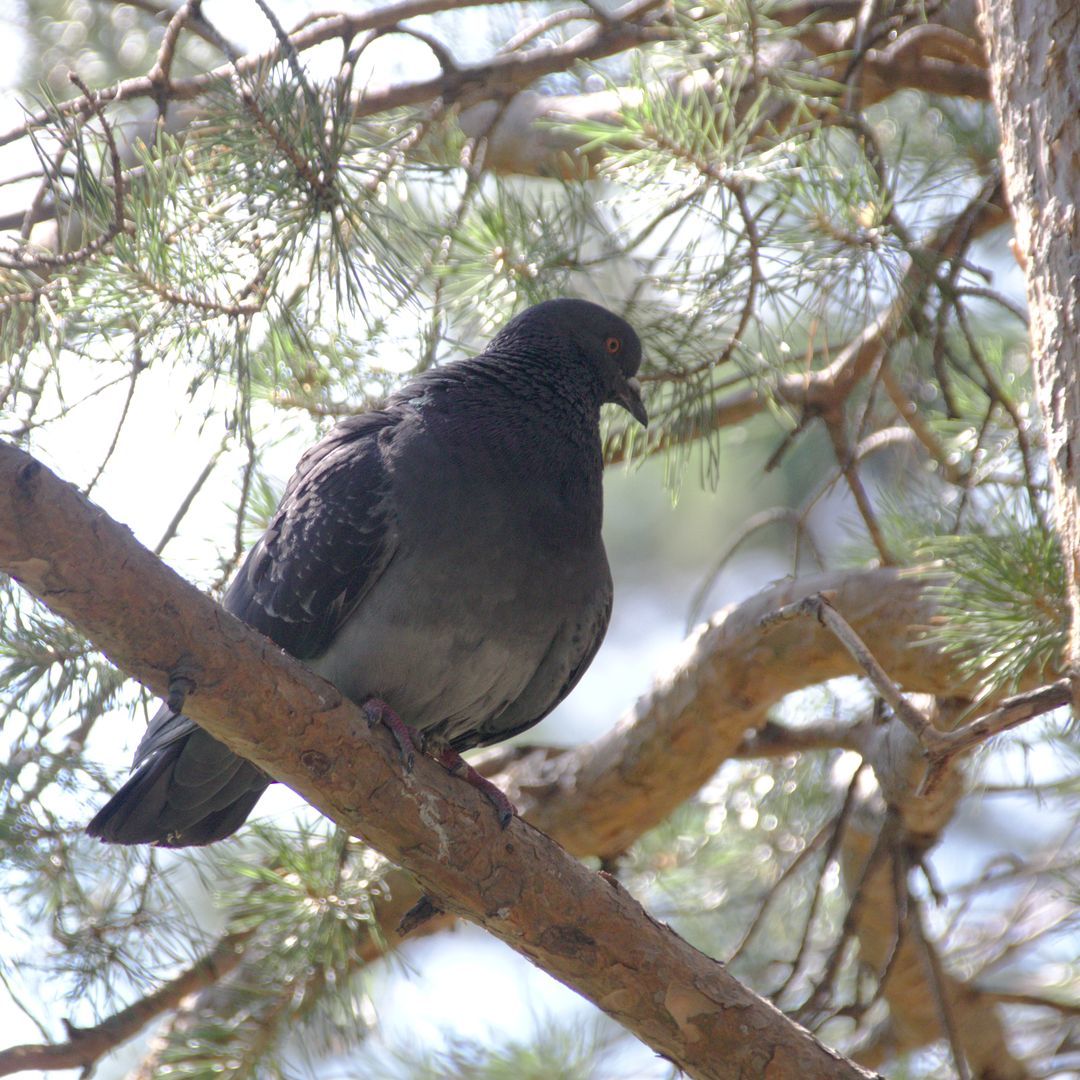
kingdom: Animalia
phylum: Chordata
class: Aves
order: Columbiformes
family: Columbidae
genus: Columba
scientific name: Columba livia
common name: Rock pigeon
